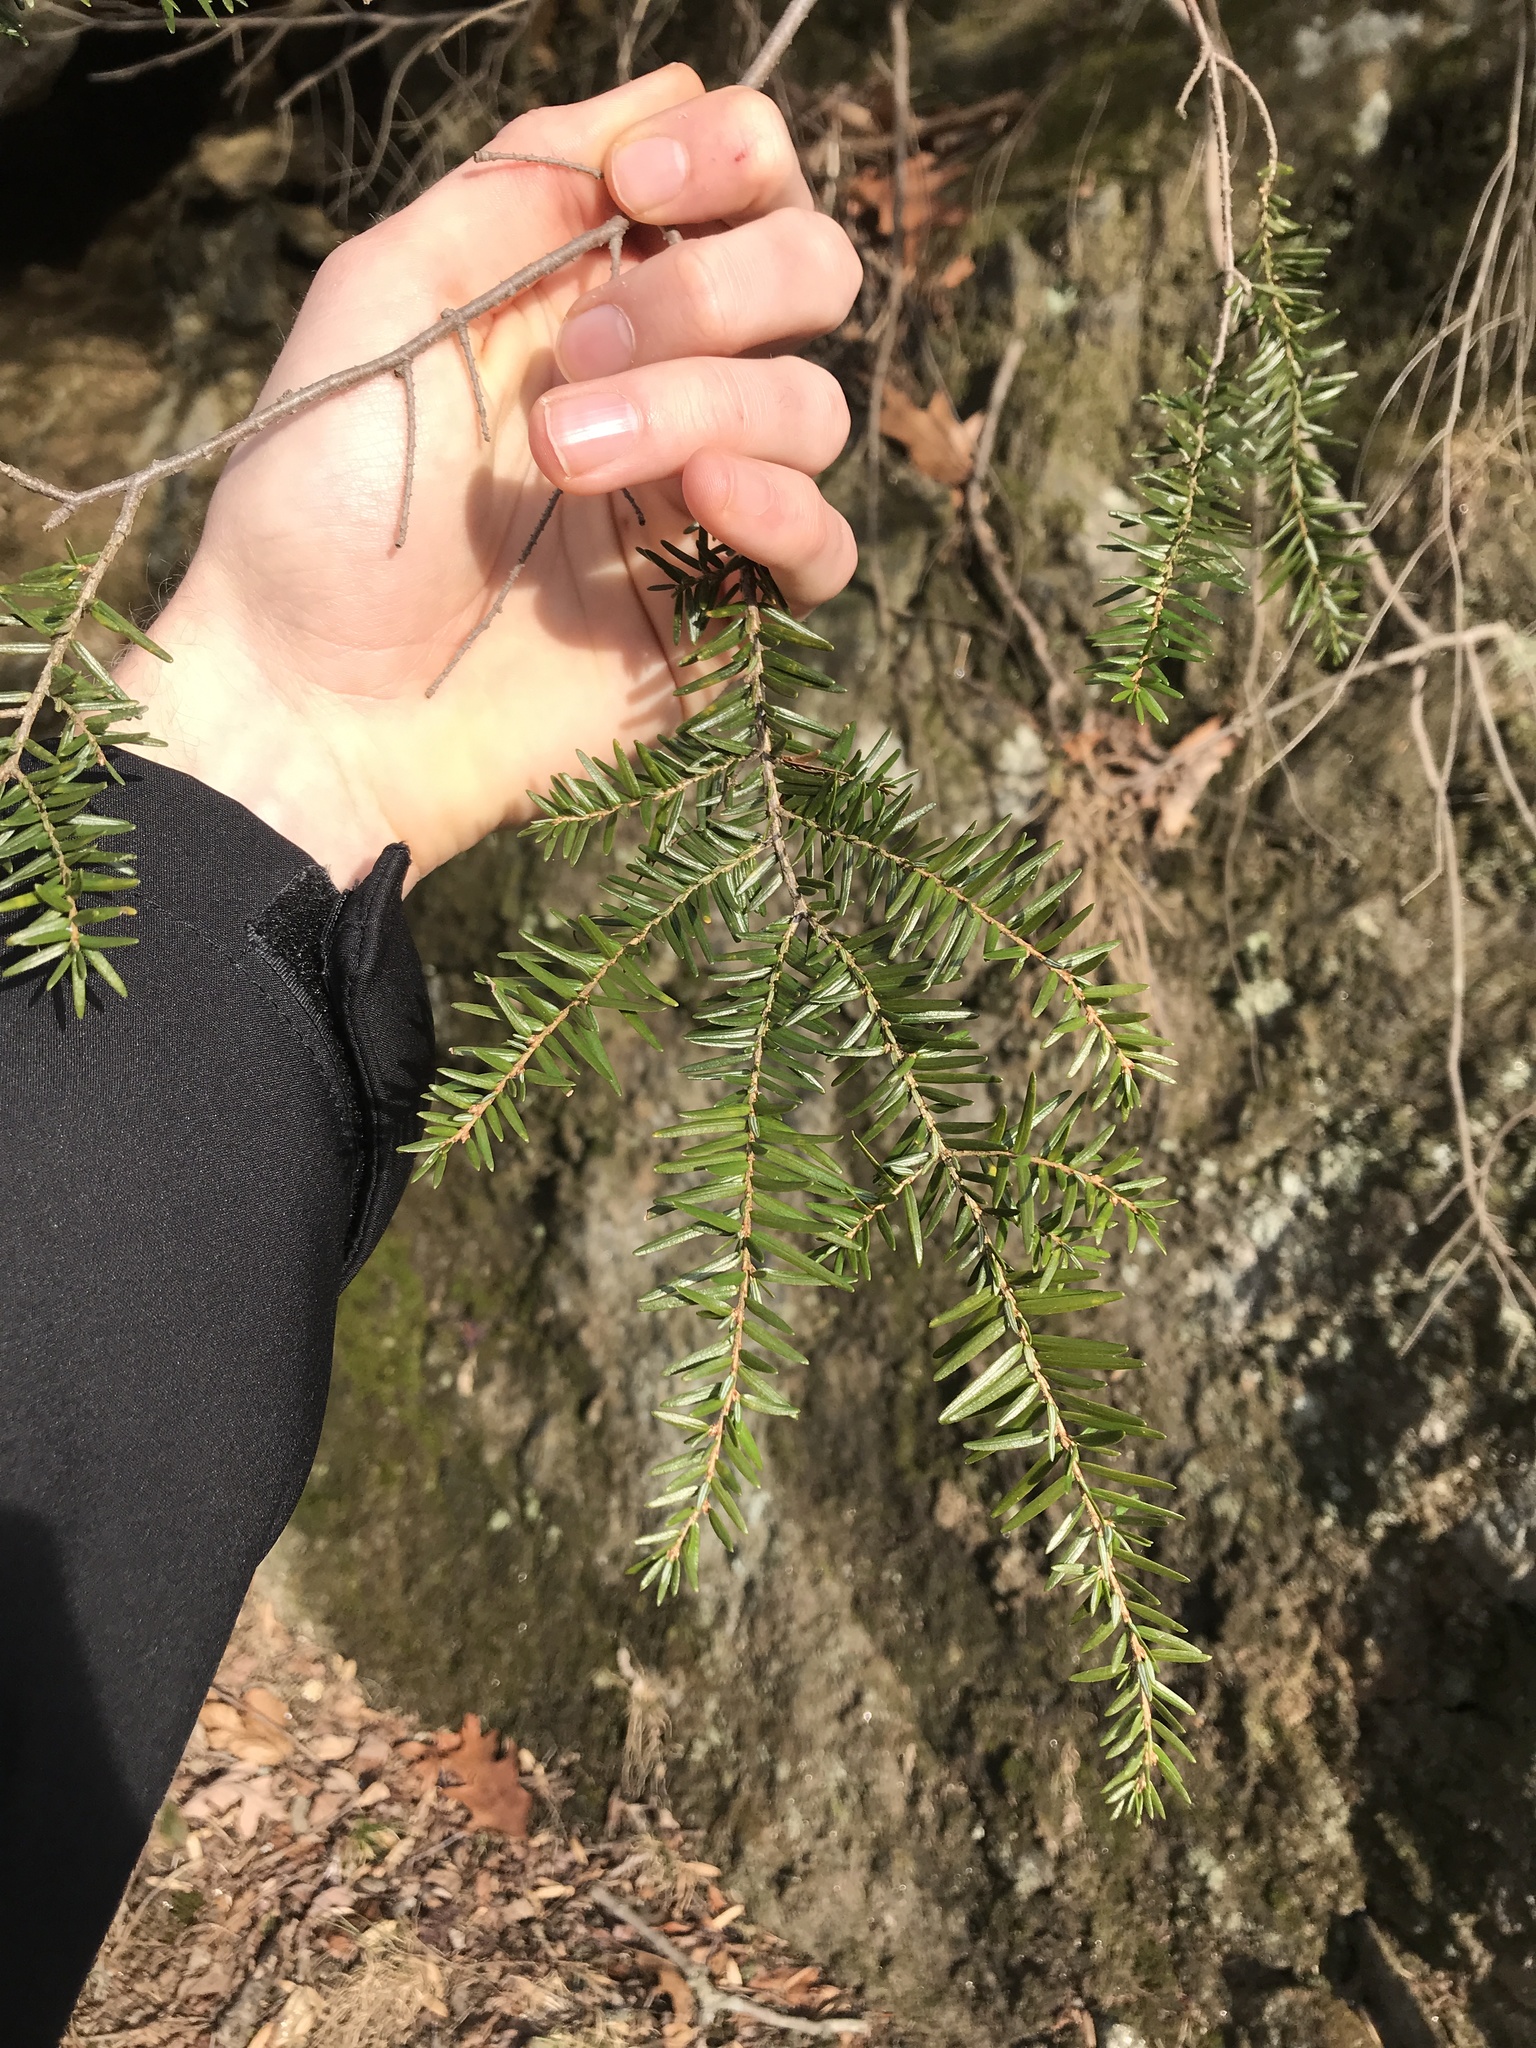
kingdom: Plantae
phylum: Tracheophyta
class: Pinopsida
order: Pinales
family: Pinaceae
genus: Tsuga
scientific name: Tsuga canadensis
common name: Eastern hemlock
